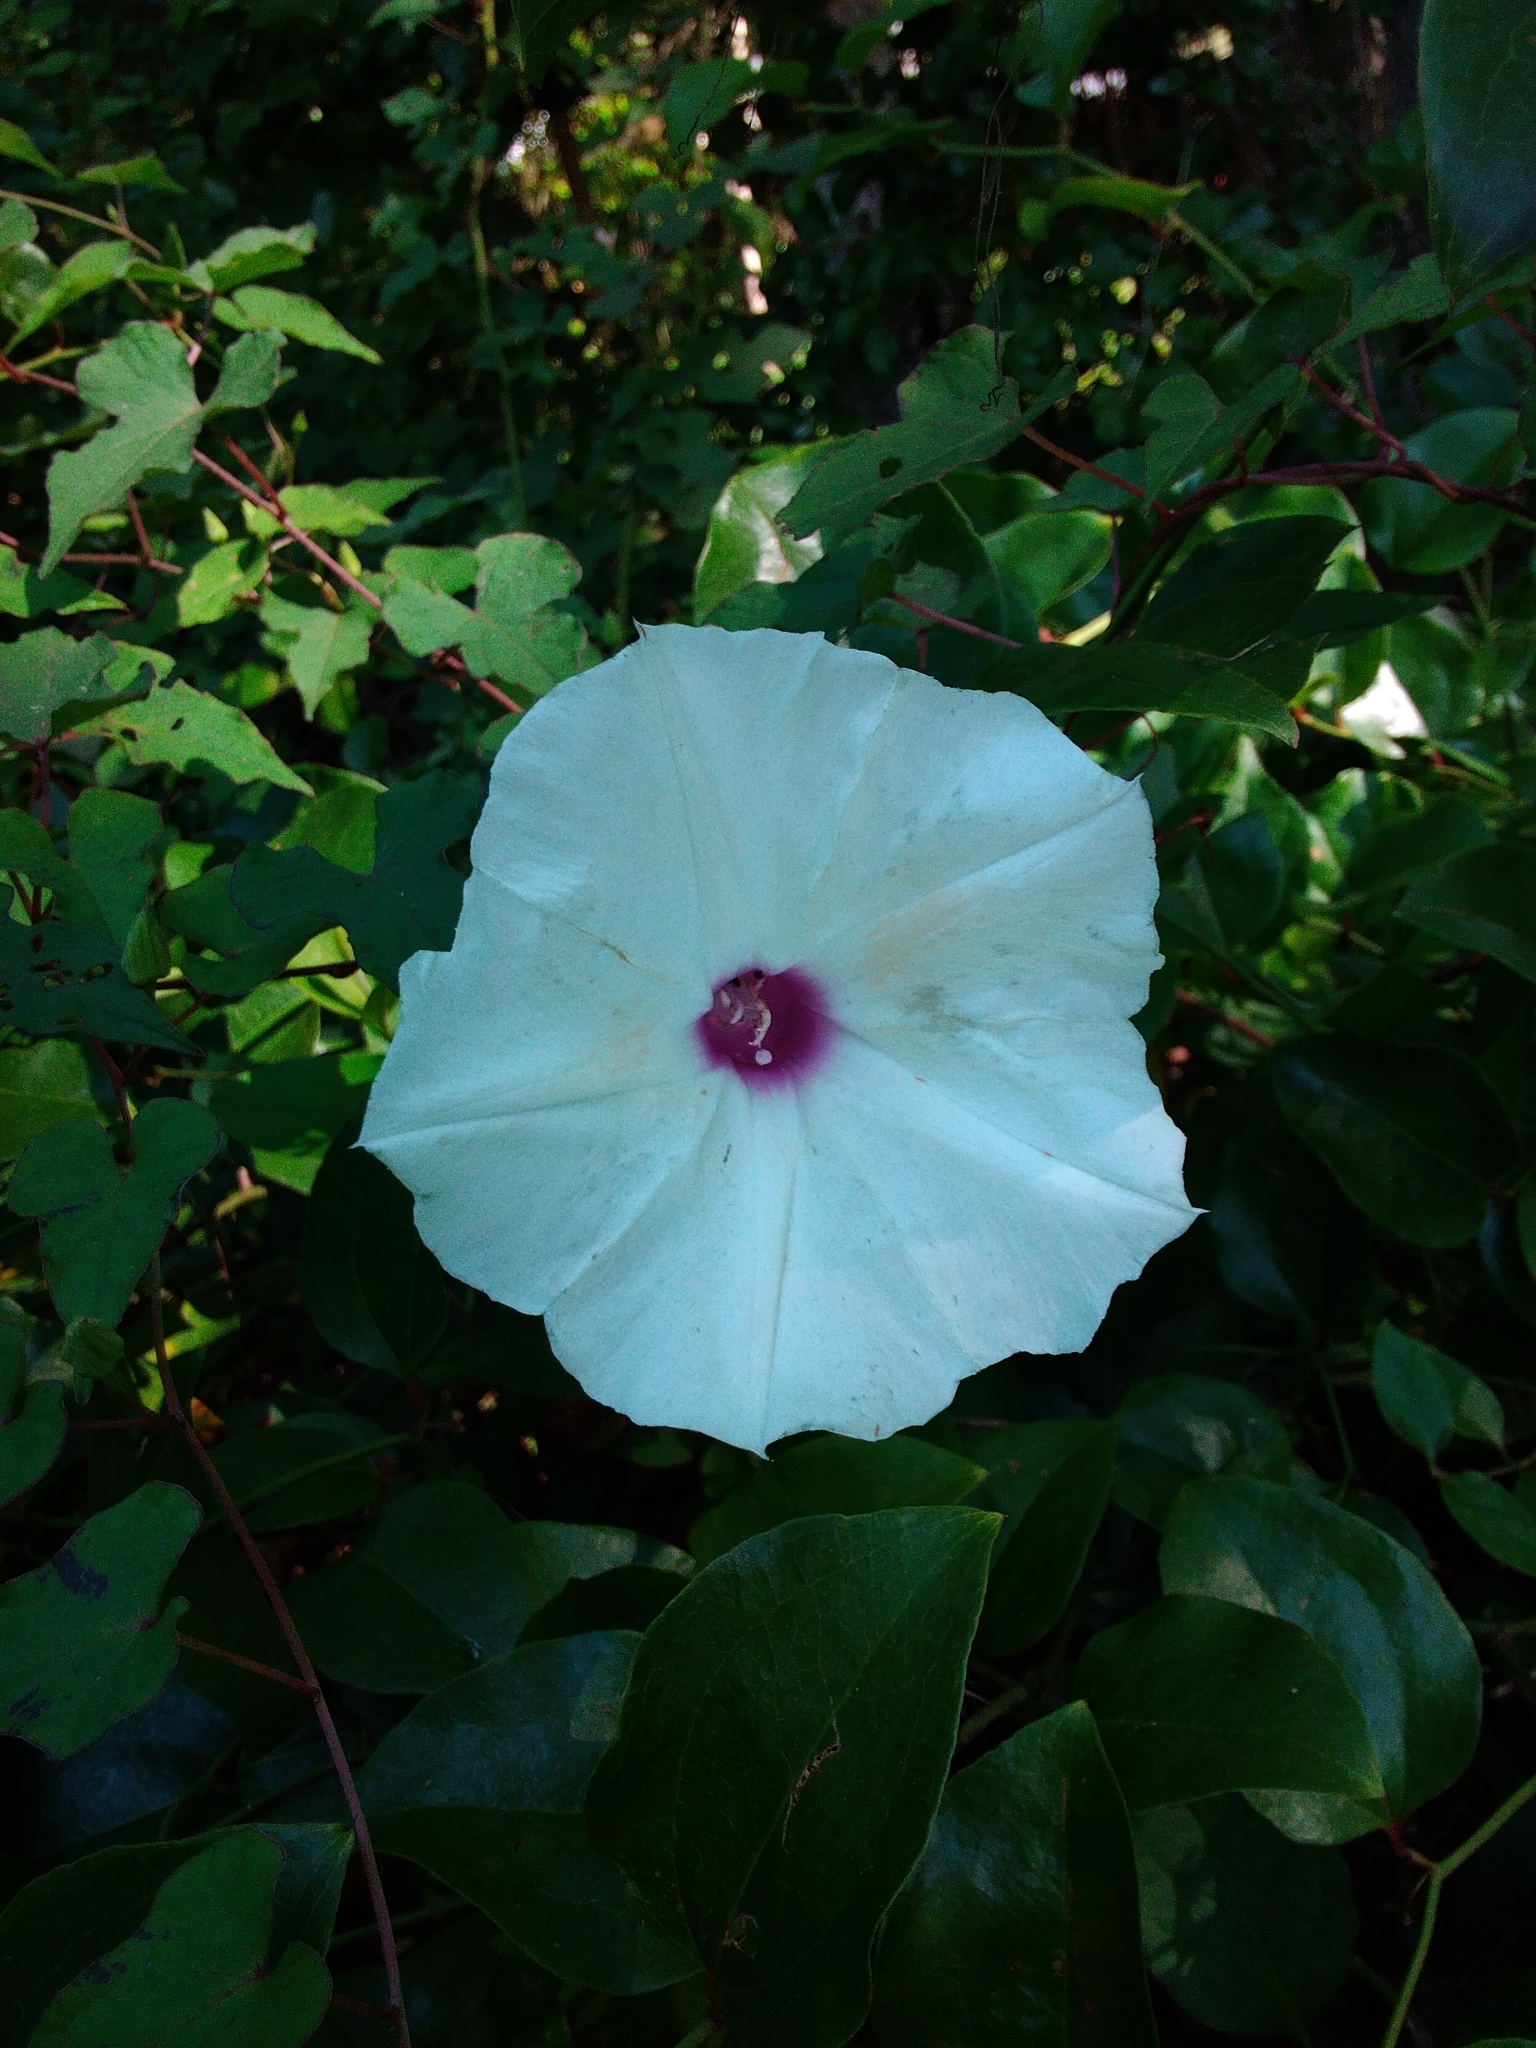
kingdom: Plantae
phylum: Tracheophyta
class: Magnoliopsida
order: Solanales
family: Convolvulaceae
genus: Ipomoea
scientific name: Ipomoea pandurata
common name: Man-of-the-earth
